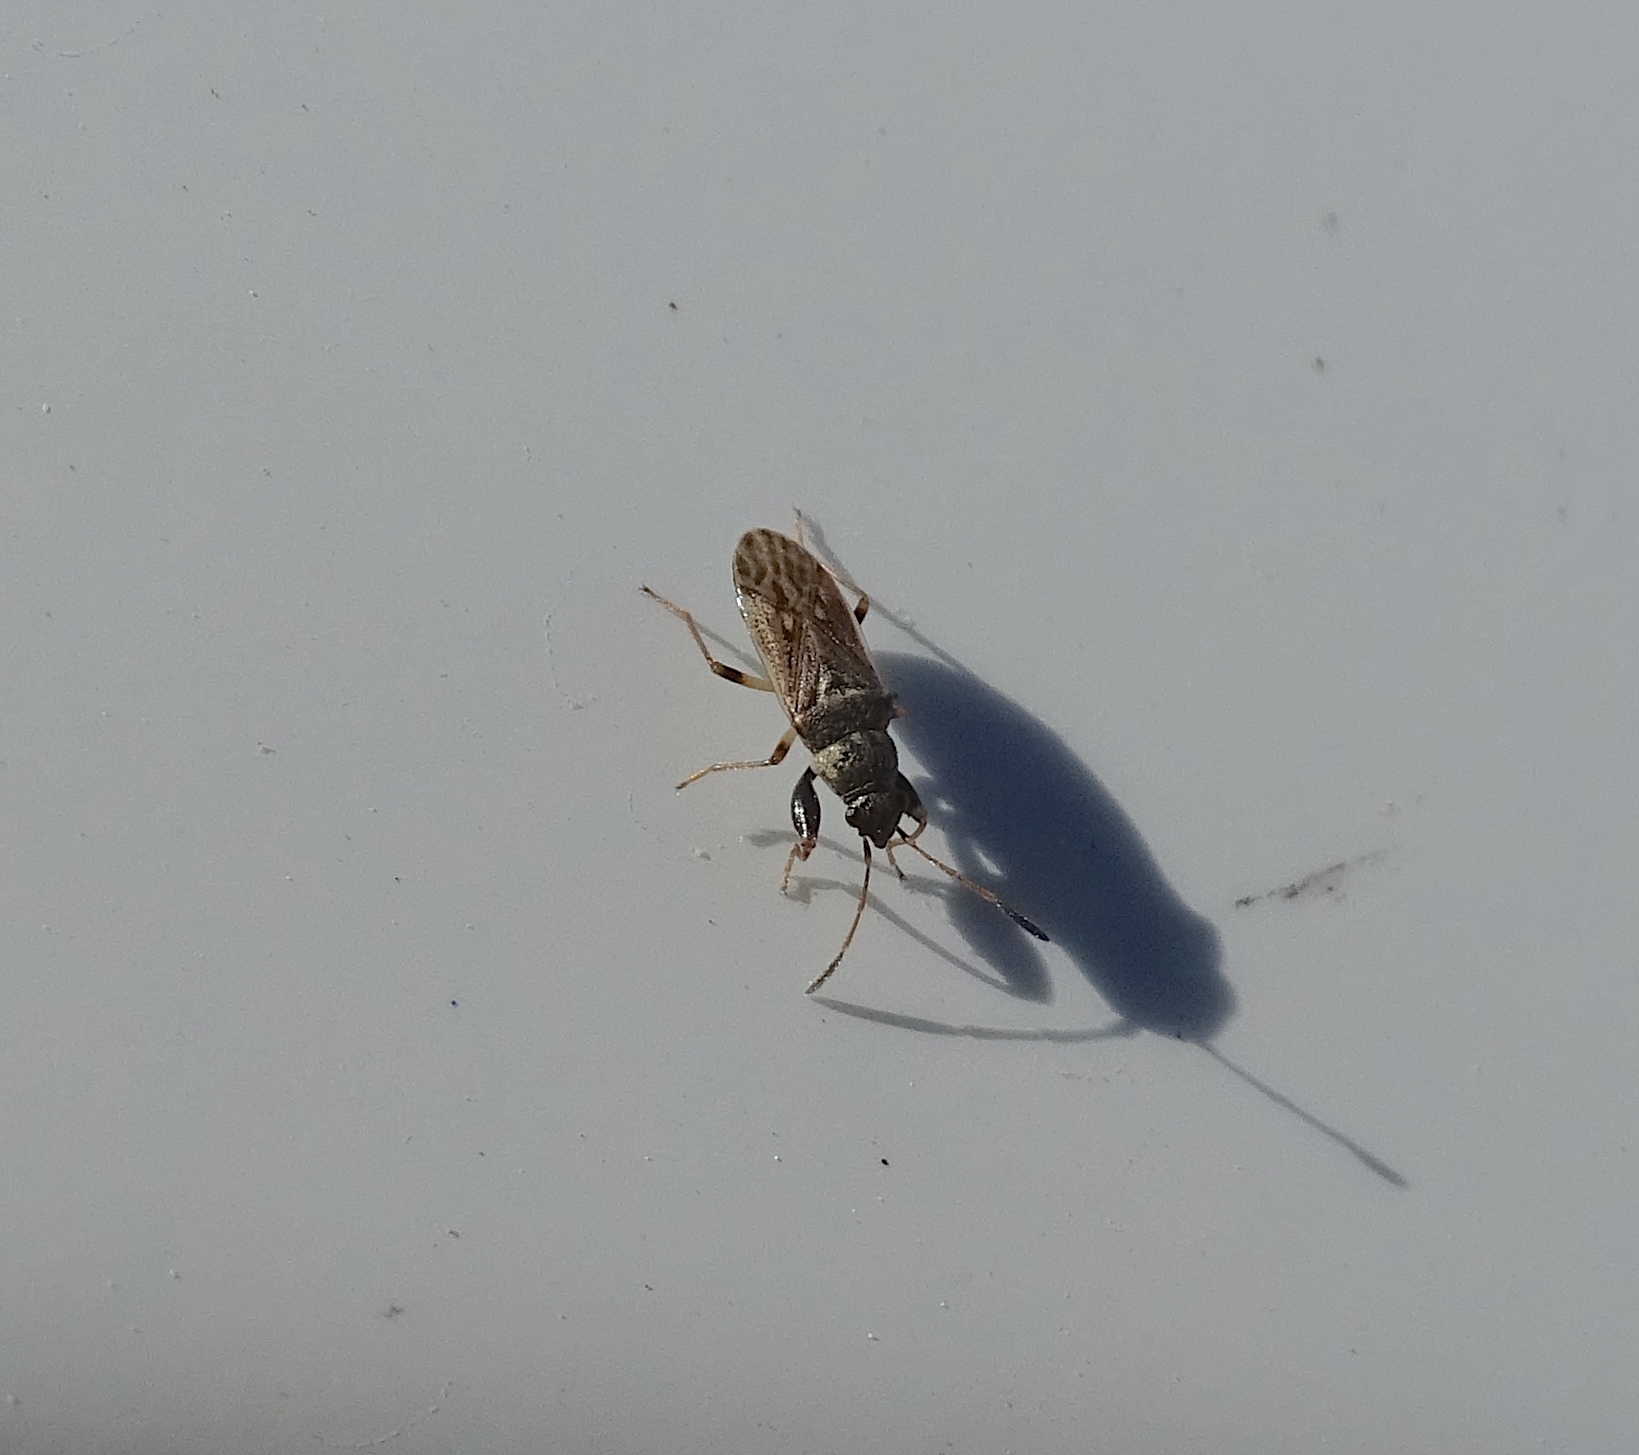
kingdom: Animalia
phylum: Arthropoda
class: Insecta
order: Hemiptera
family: Rhyparochromidae
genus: Pseudopachybrachius
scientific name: Pseudopachybrachius basalis
